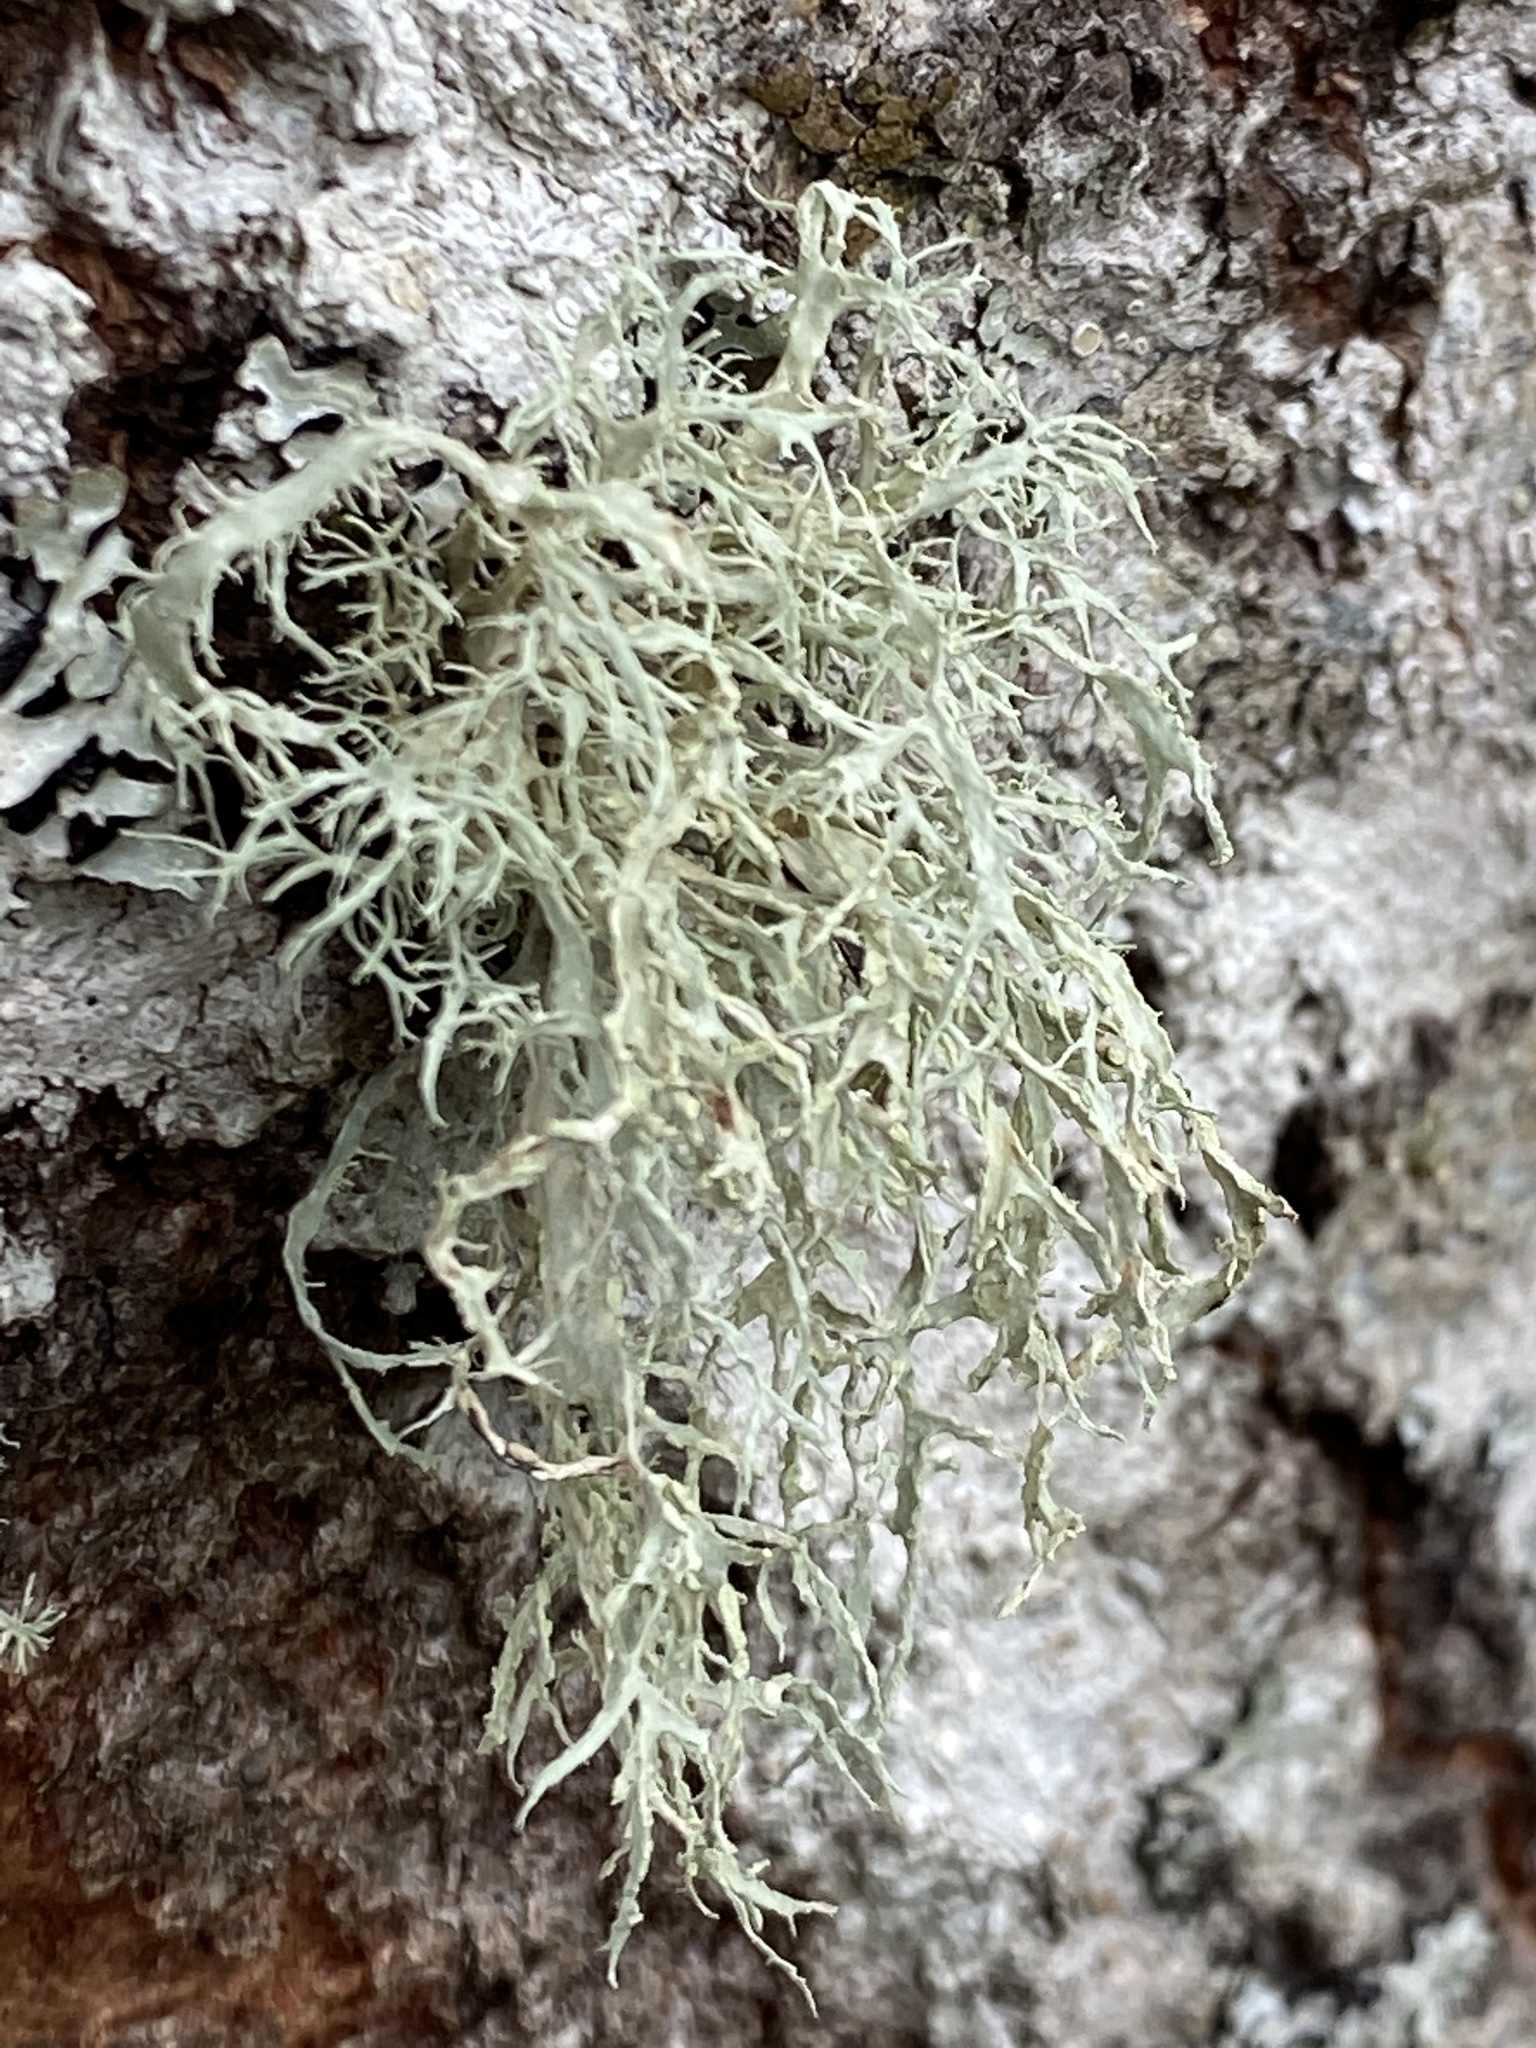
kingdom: Fungi
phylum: Ascomycota
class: Lecanoromycetes
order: Lecanorales
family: Ramalinaceae
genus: Ramalina
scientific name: Ramalina farinacea
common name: Farinose cartilage lichen
